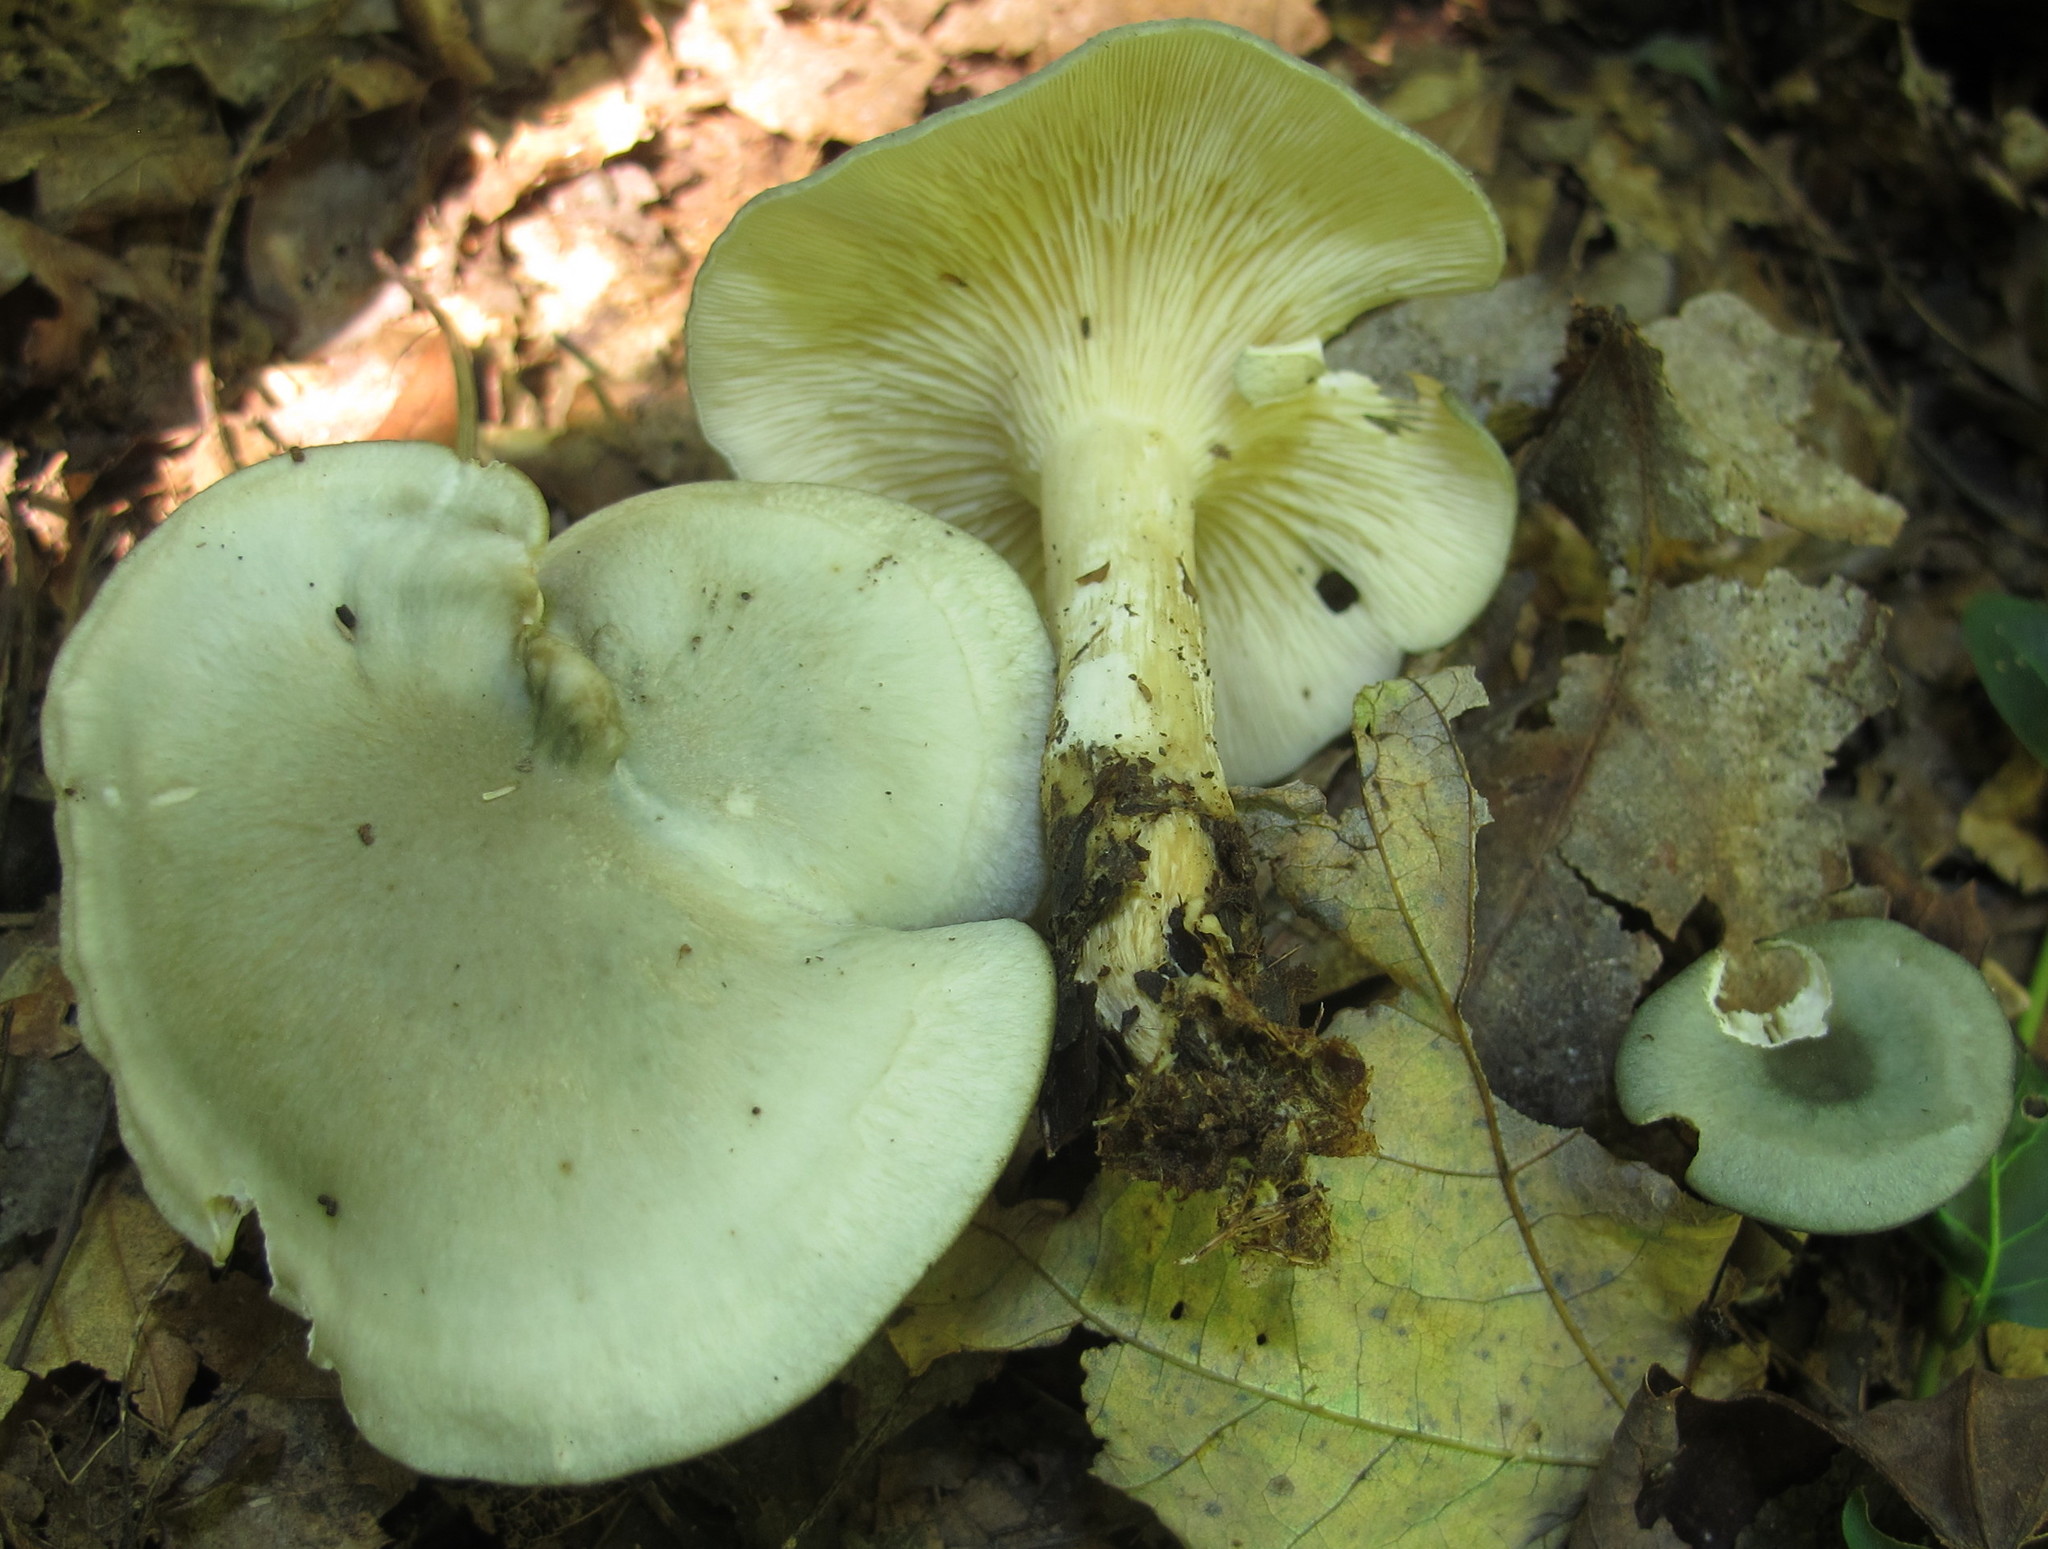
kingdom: Fungi
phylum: Basidiomycota
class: Agaricomycetes
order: Agaricales
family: Tricholomataceae
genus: Collybia
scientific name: Collybia
